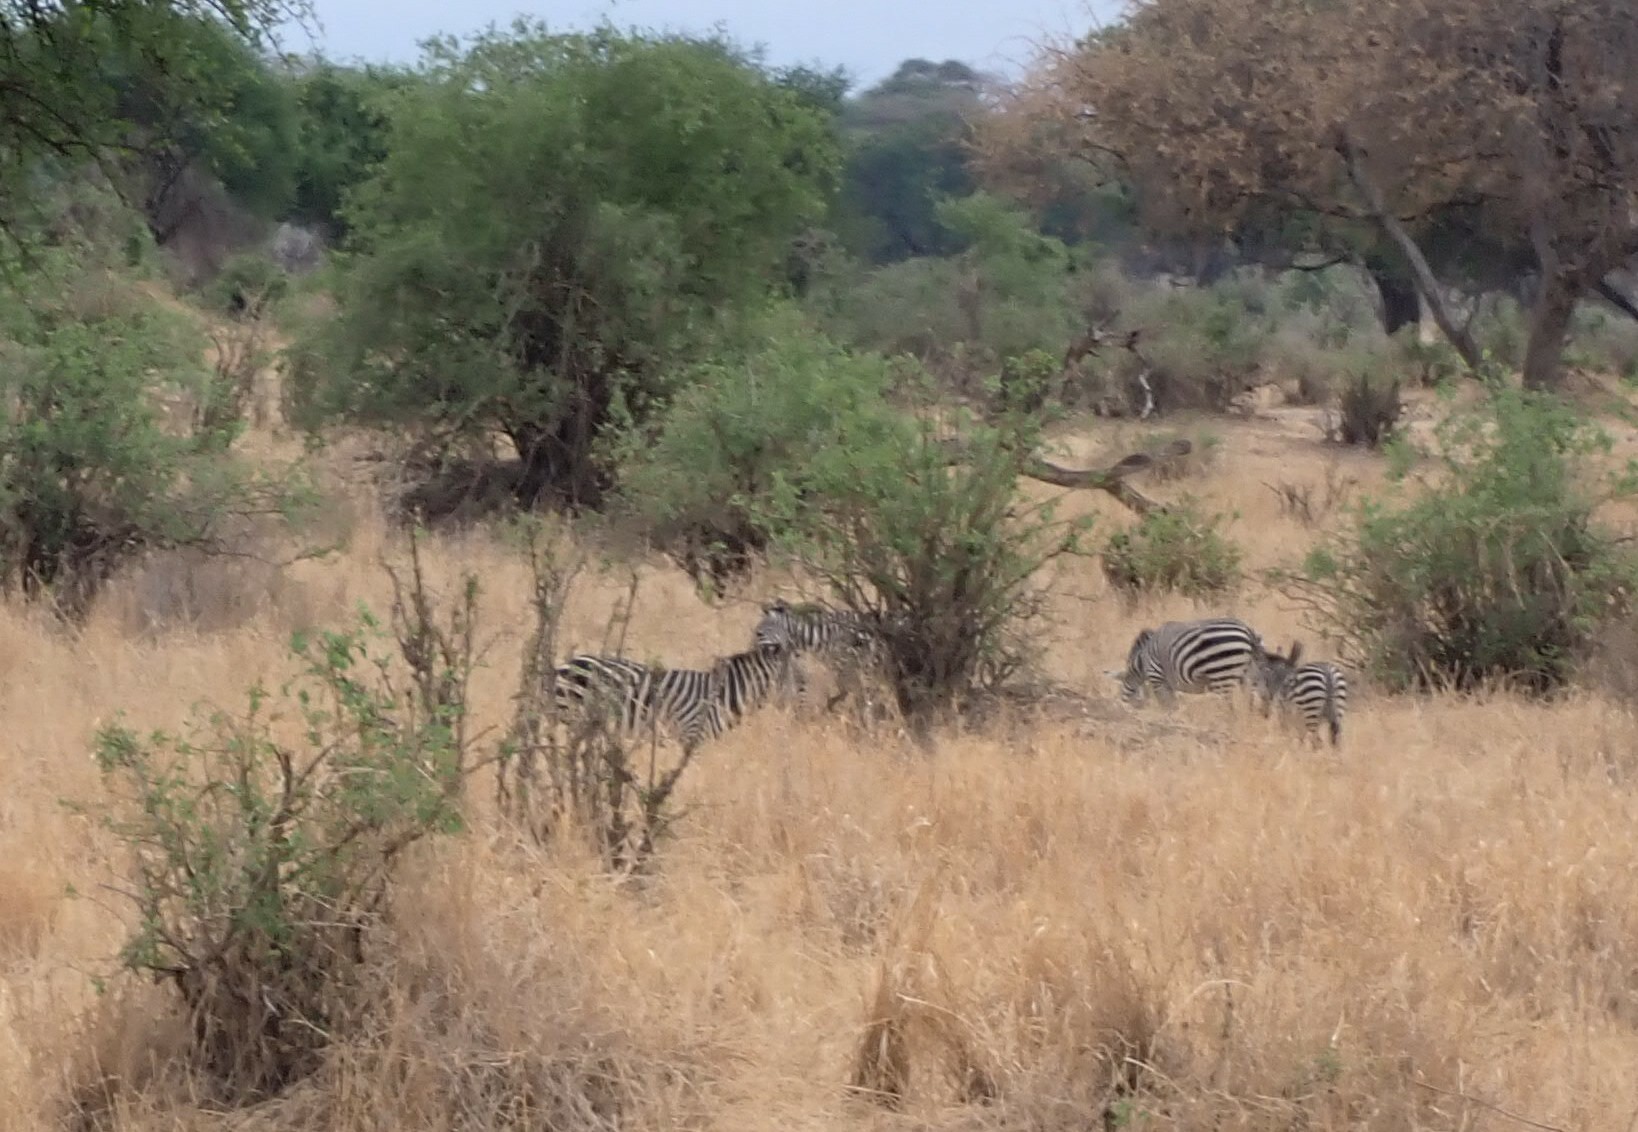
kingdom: Animalia
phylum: Chordata
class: Mammalia
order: Perissodactyla
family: Equidae
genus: Equus
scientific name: Equus quagga
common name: Plains zebra
